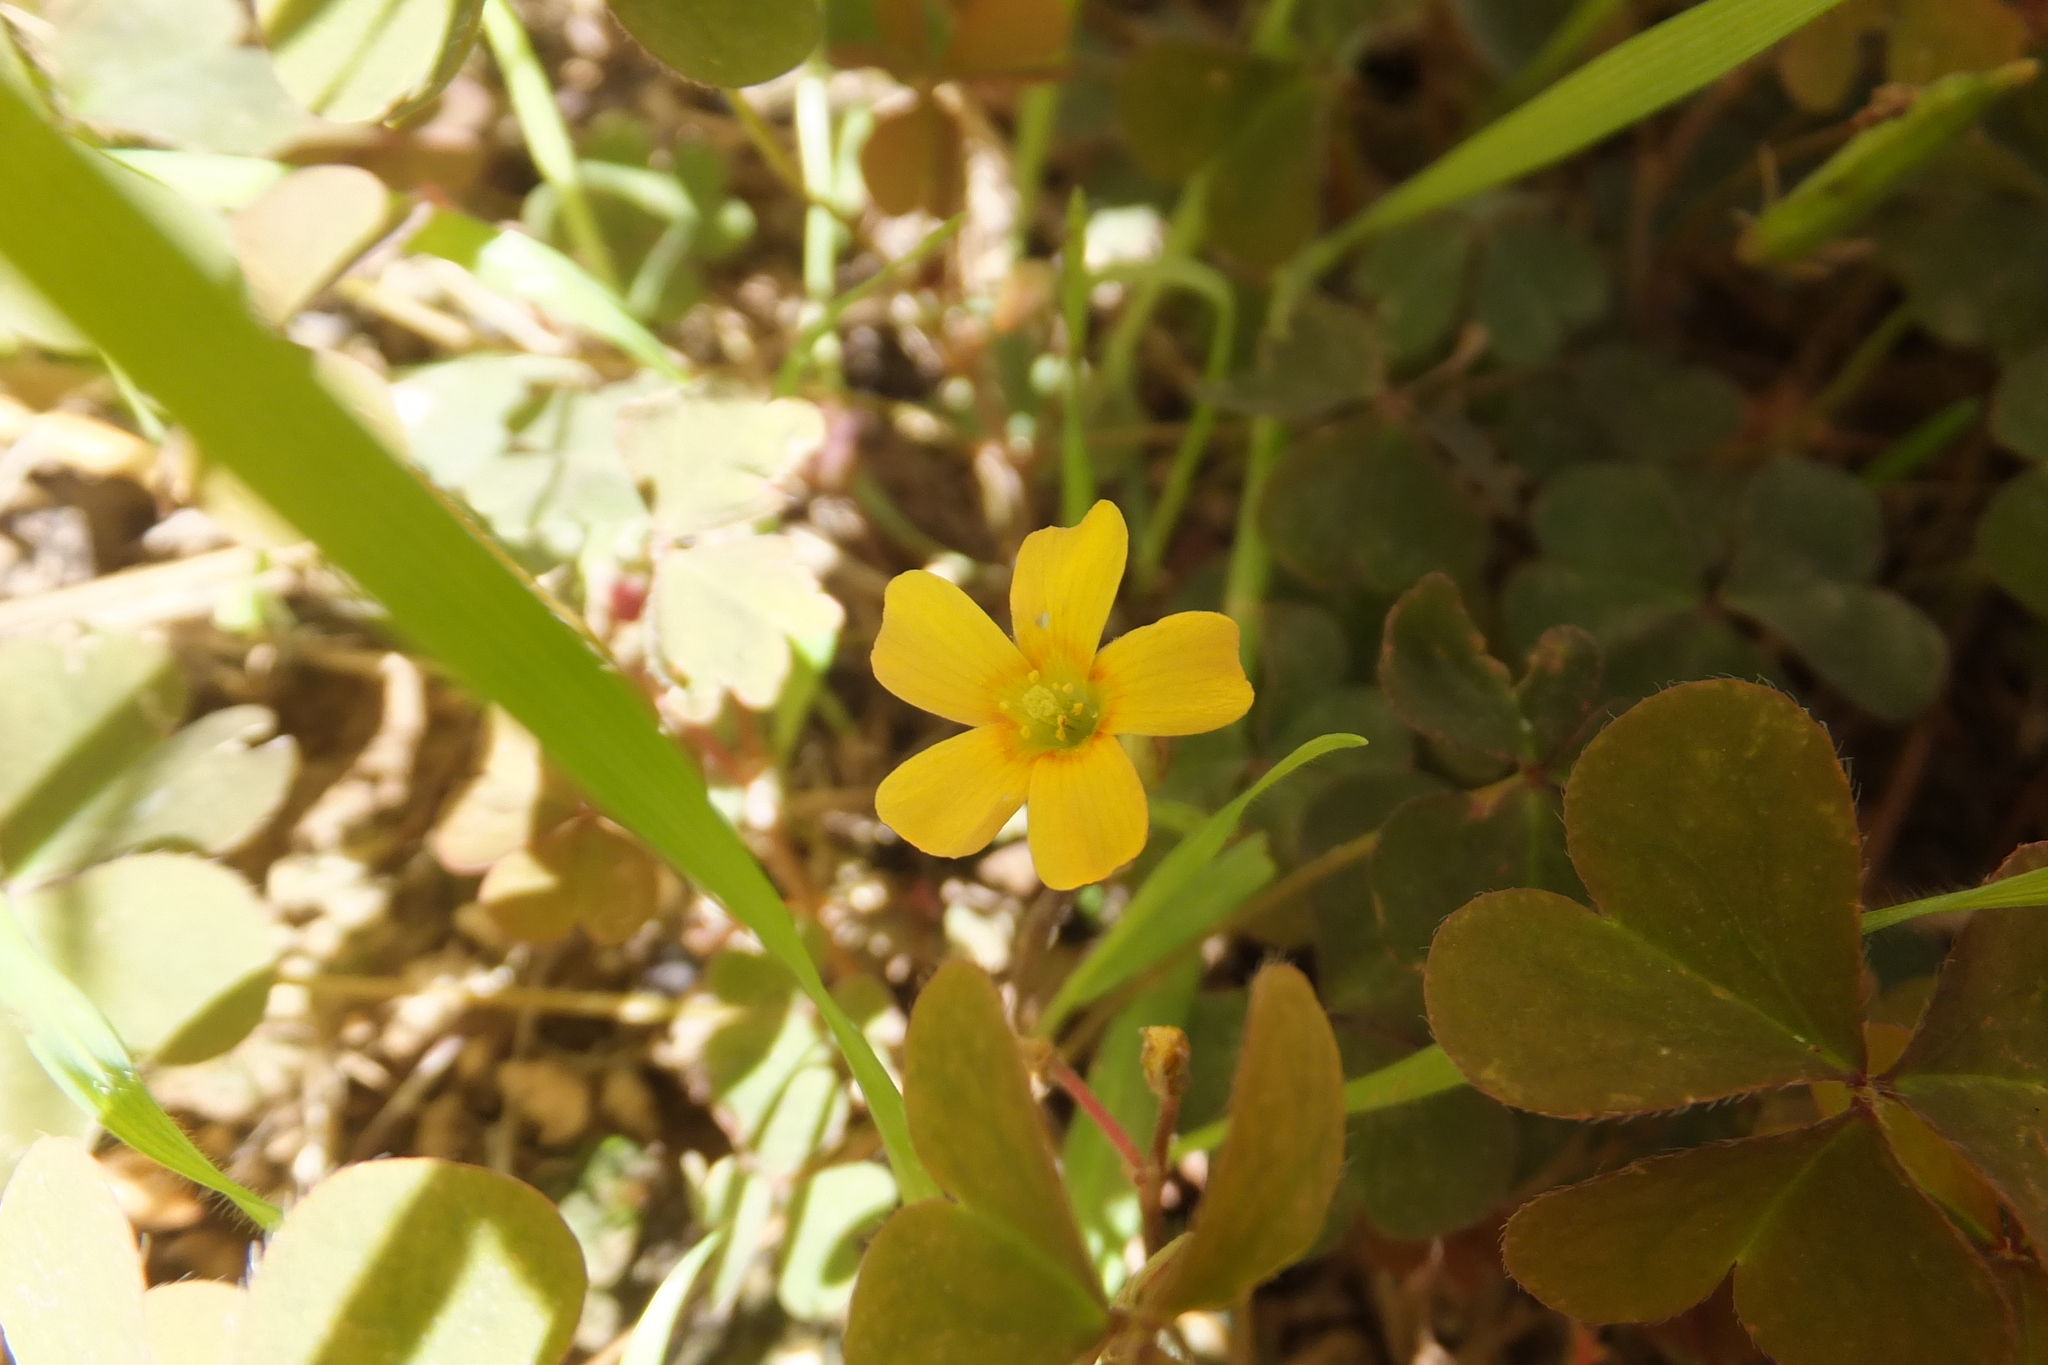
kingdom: Plantae
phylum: Tracheophyta
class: Magnoliopsida
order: Oxalidales
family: Oxalidaceae
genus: Oxalis
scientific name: Oxalis corniculata
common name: Procumbent yellow-sorrel
